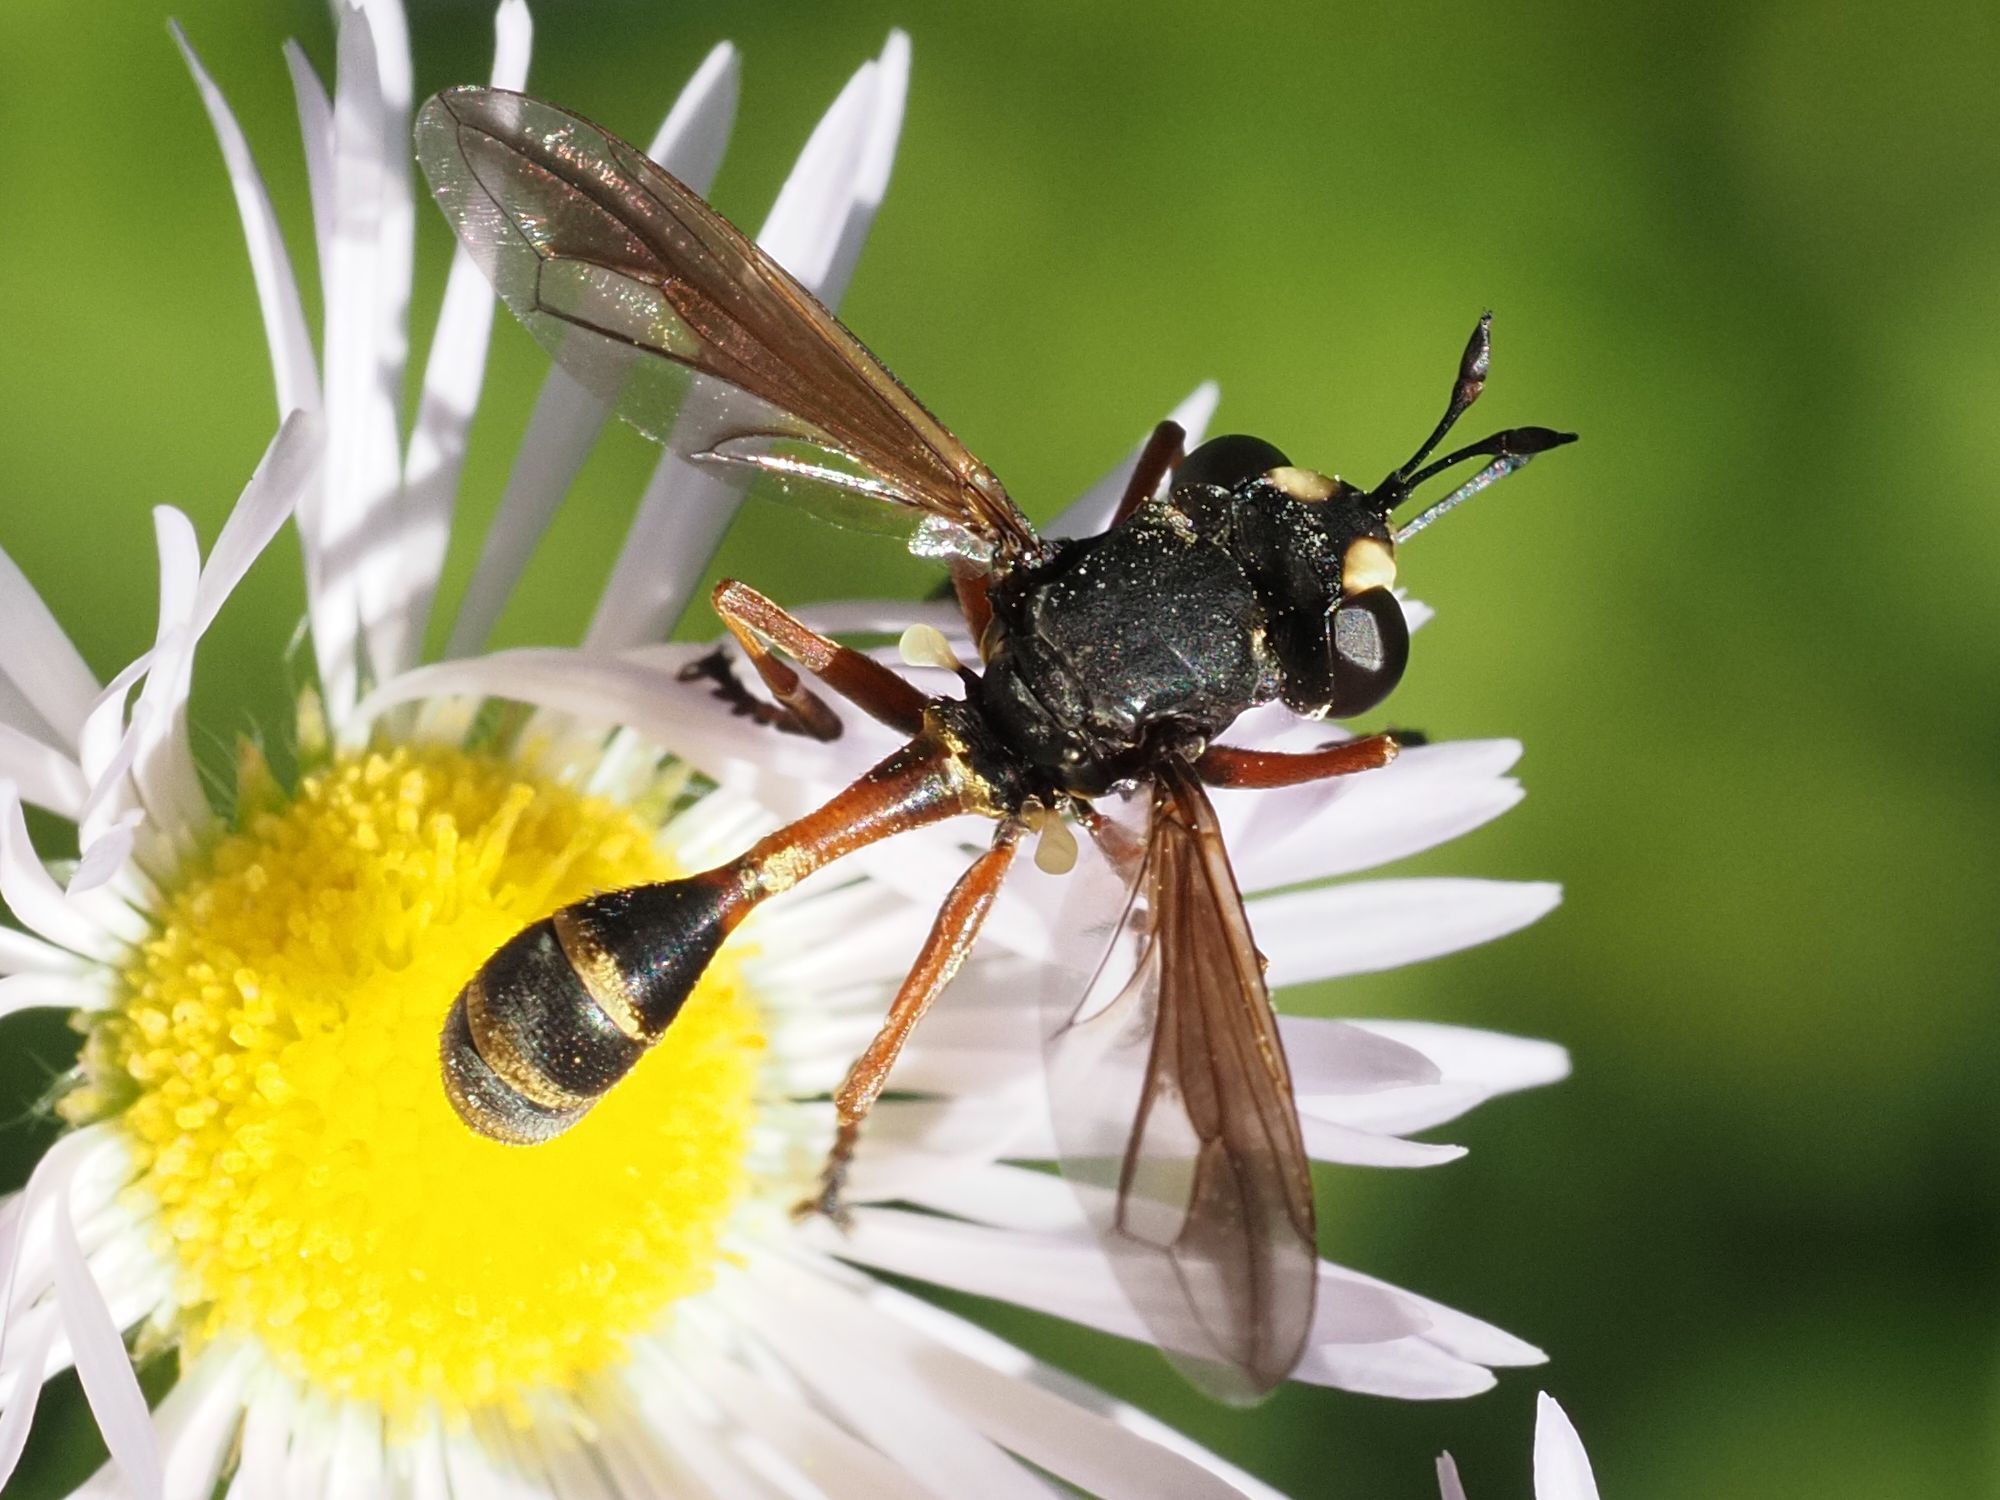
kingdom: Animalia
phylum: Arthropoda
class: Insecta
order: Diptera
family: Conopidae
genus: Physocephala
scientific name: Physocephala rufipes
